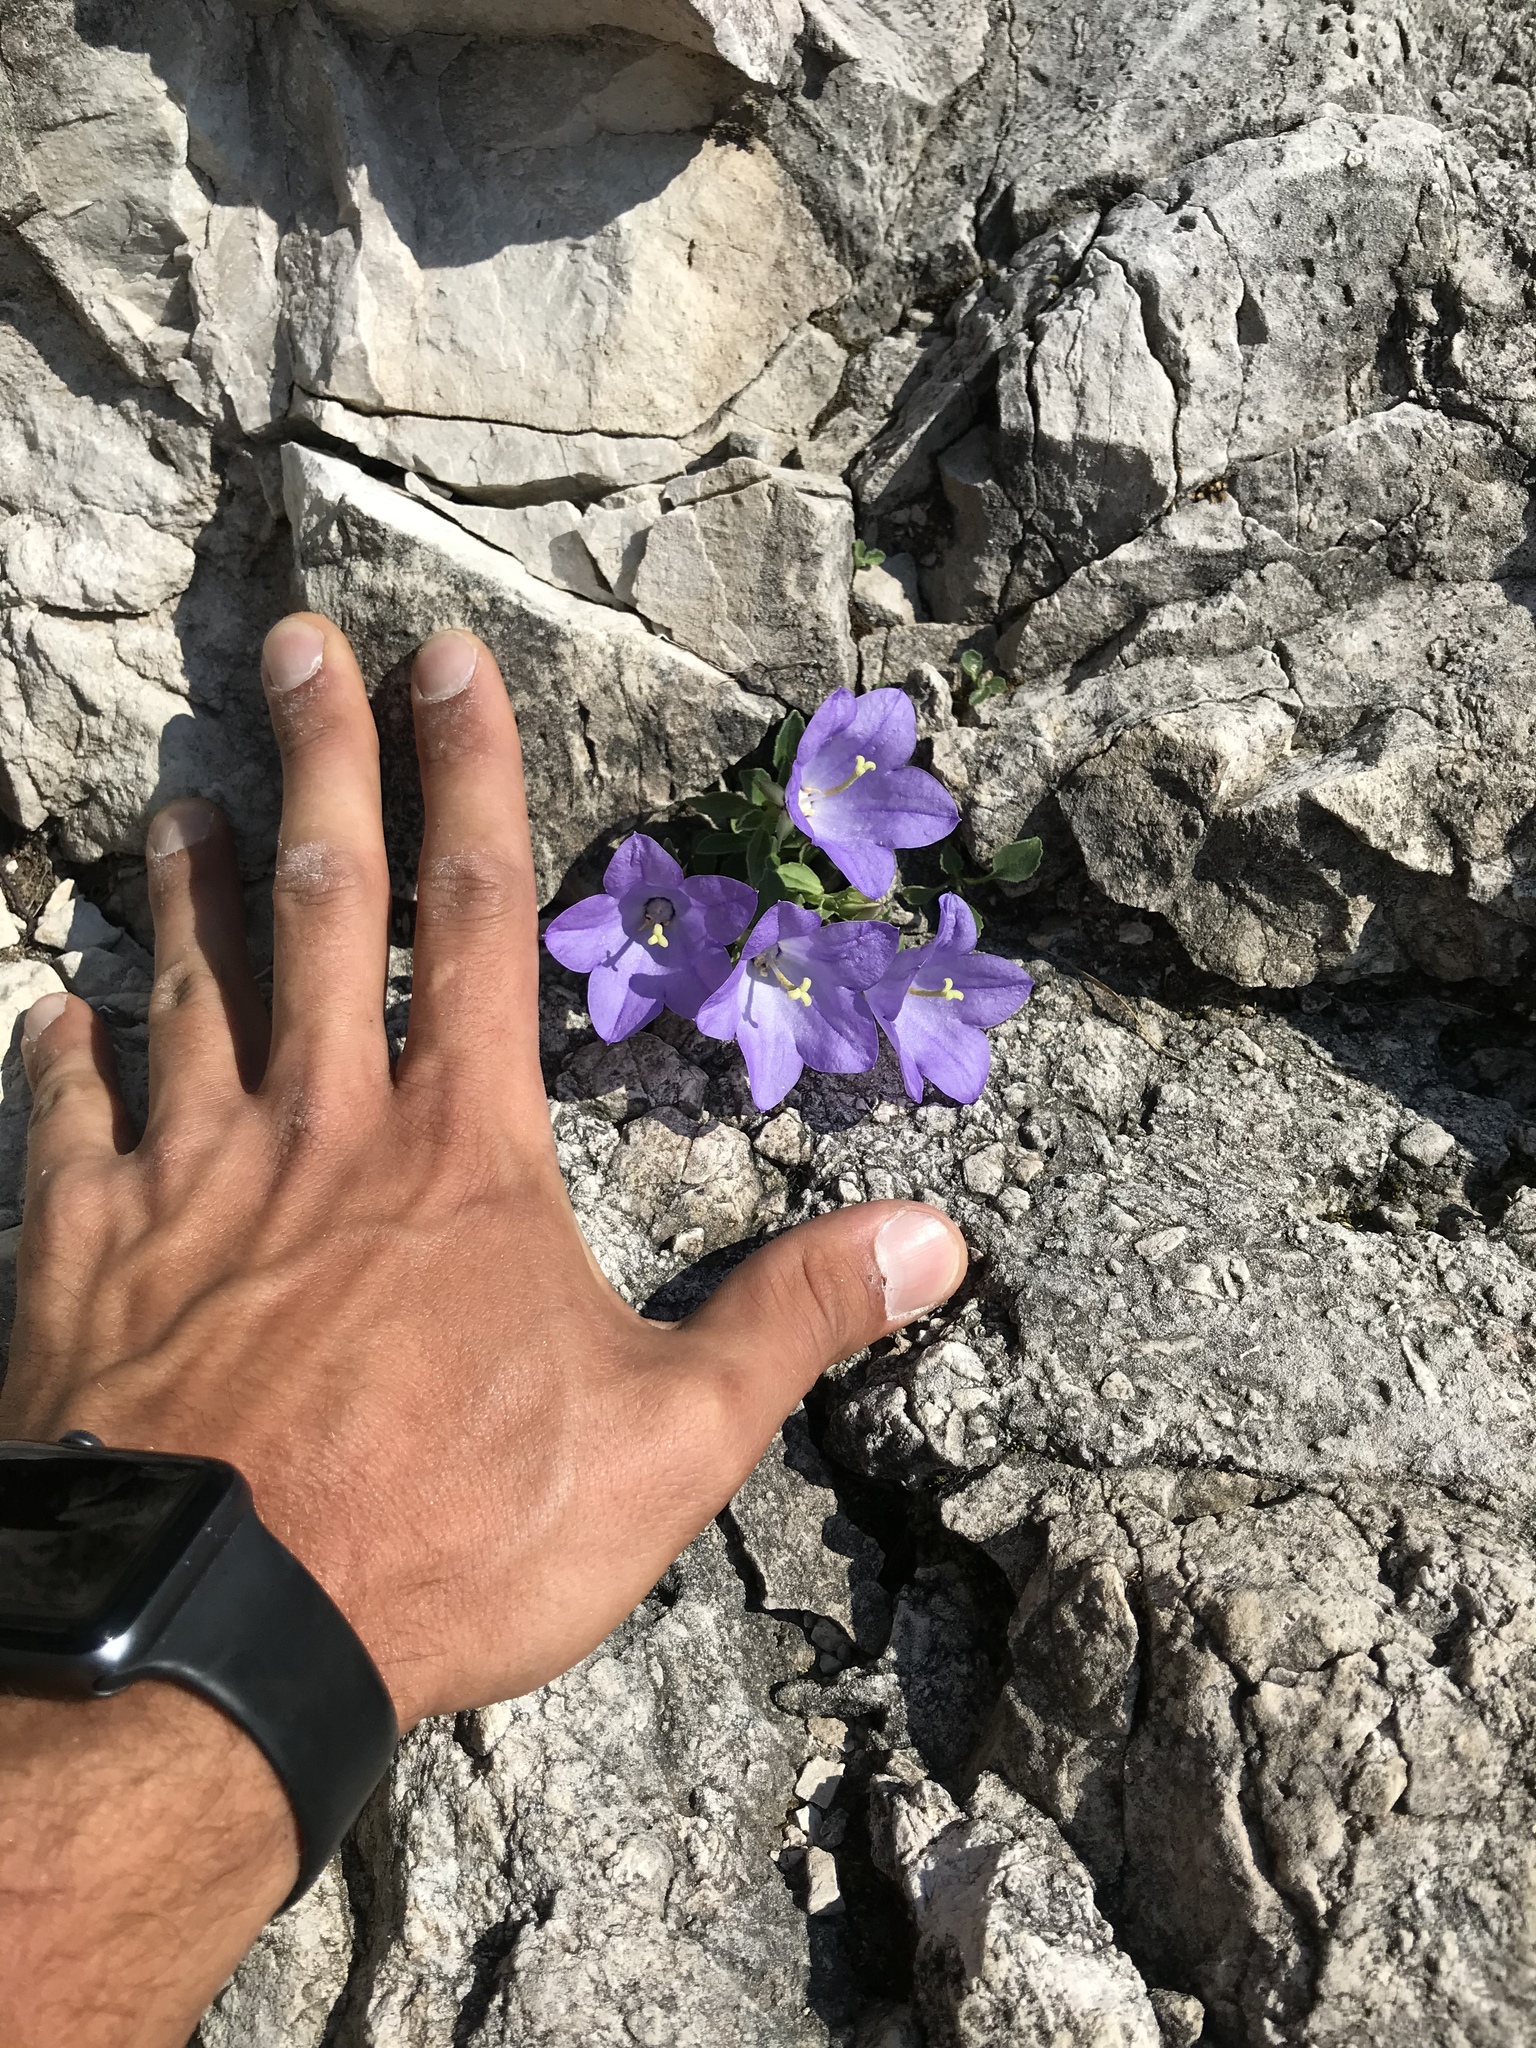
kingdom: Plantae
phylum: Tracheophyta
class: Magnoliopsida
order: Asterales
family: Campanulaceae
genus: Campanula
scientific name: Campanula raineri
